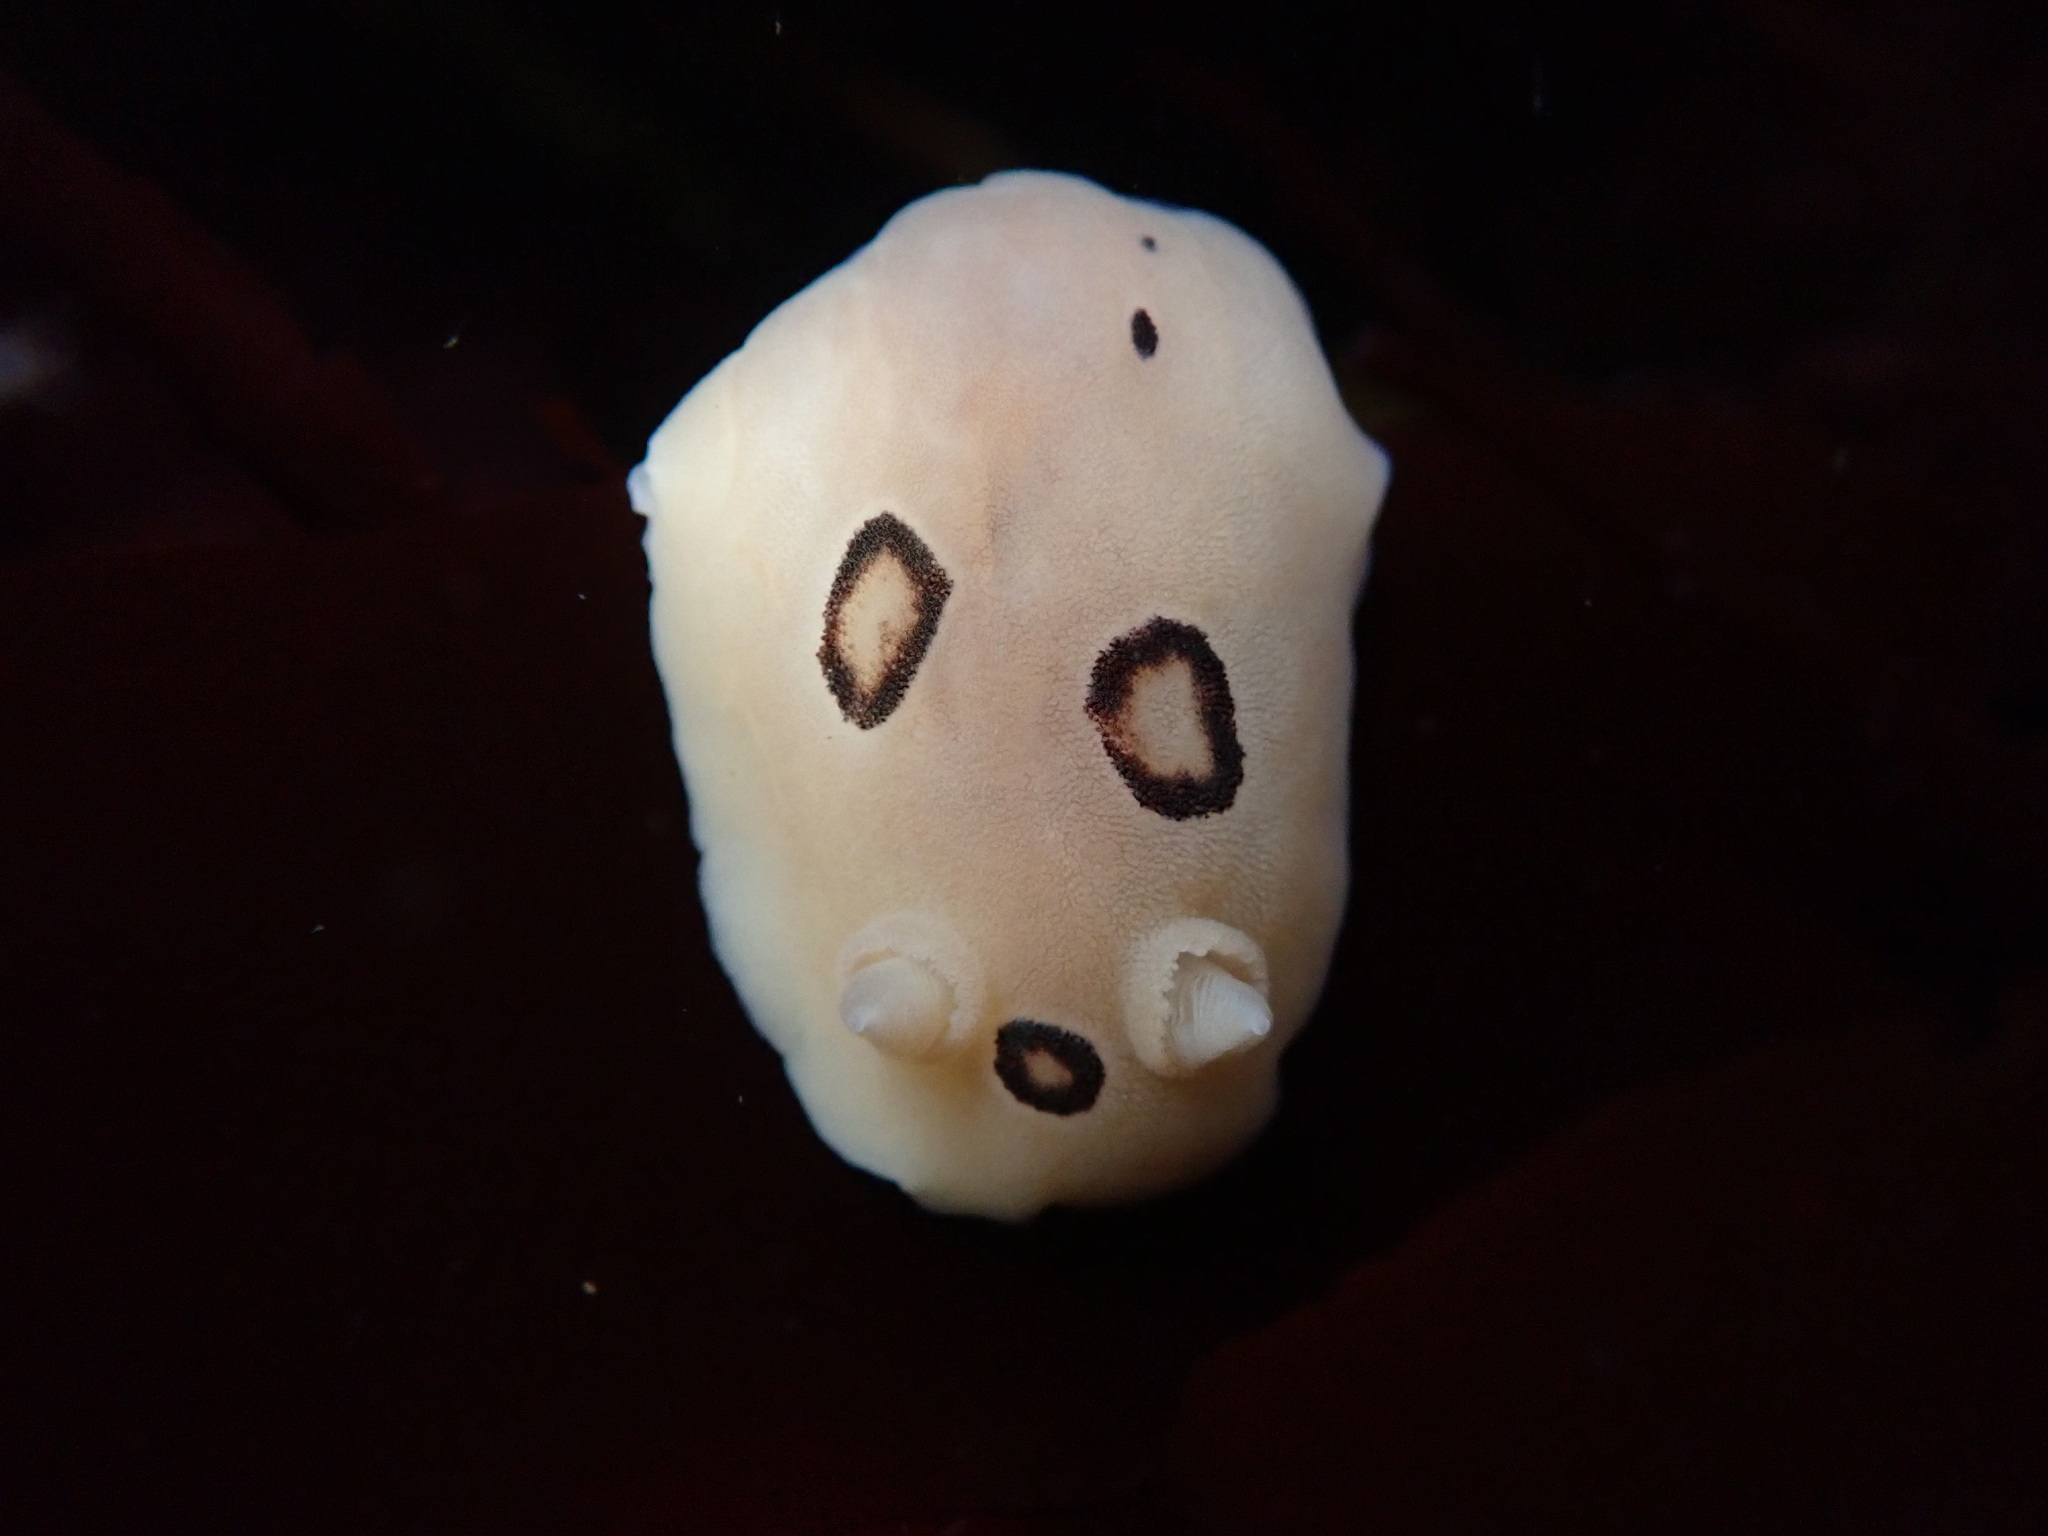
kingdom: Animalia
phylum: Mollusca
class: Gastropoda
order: Nudibranchia
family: Discodorididae
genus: Diaulula
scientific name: Diaulula sandiegensis
